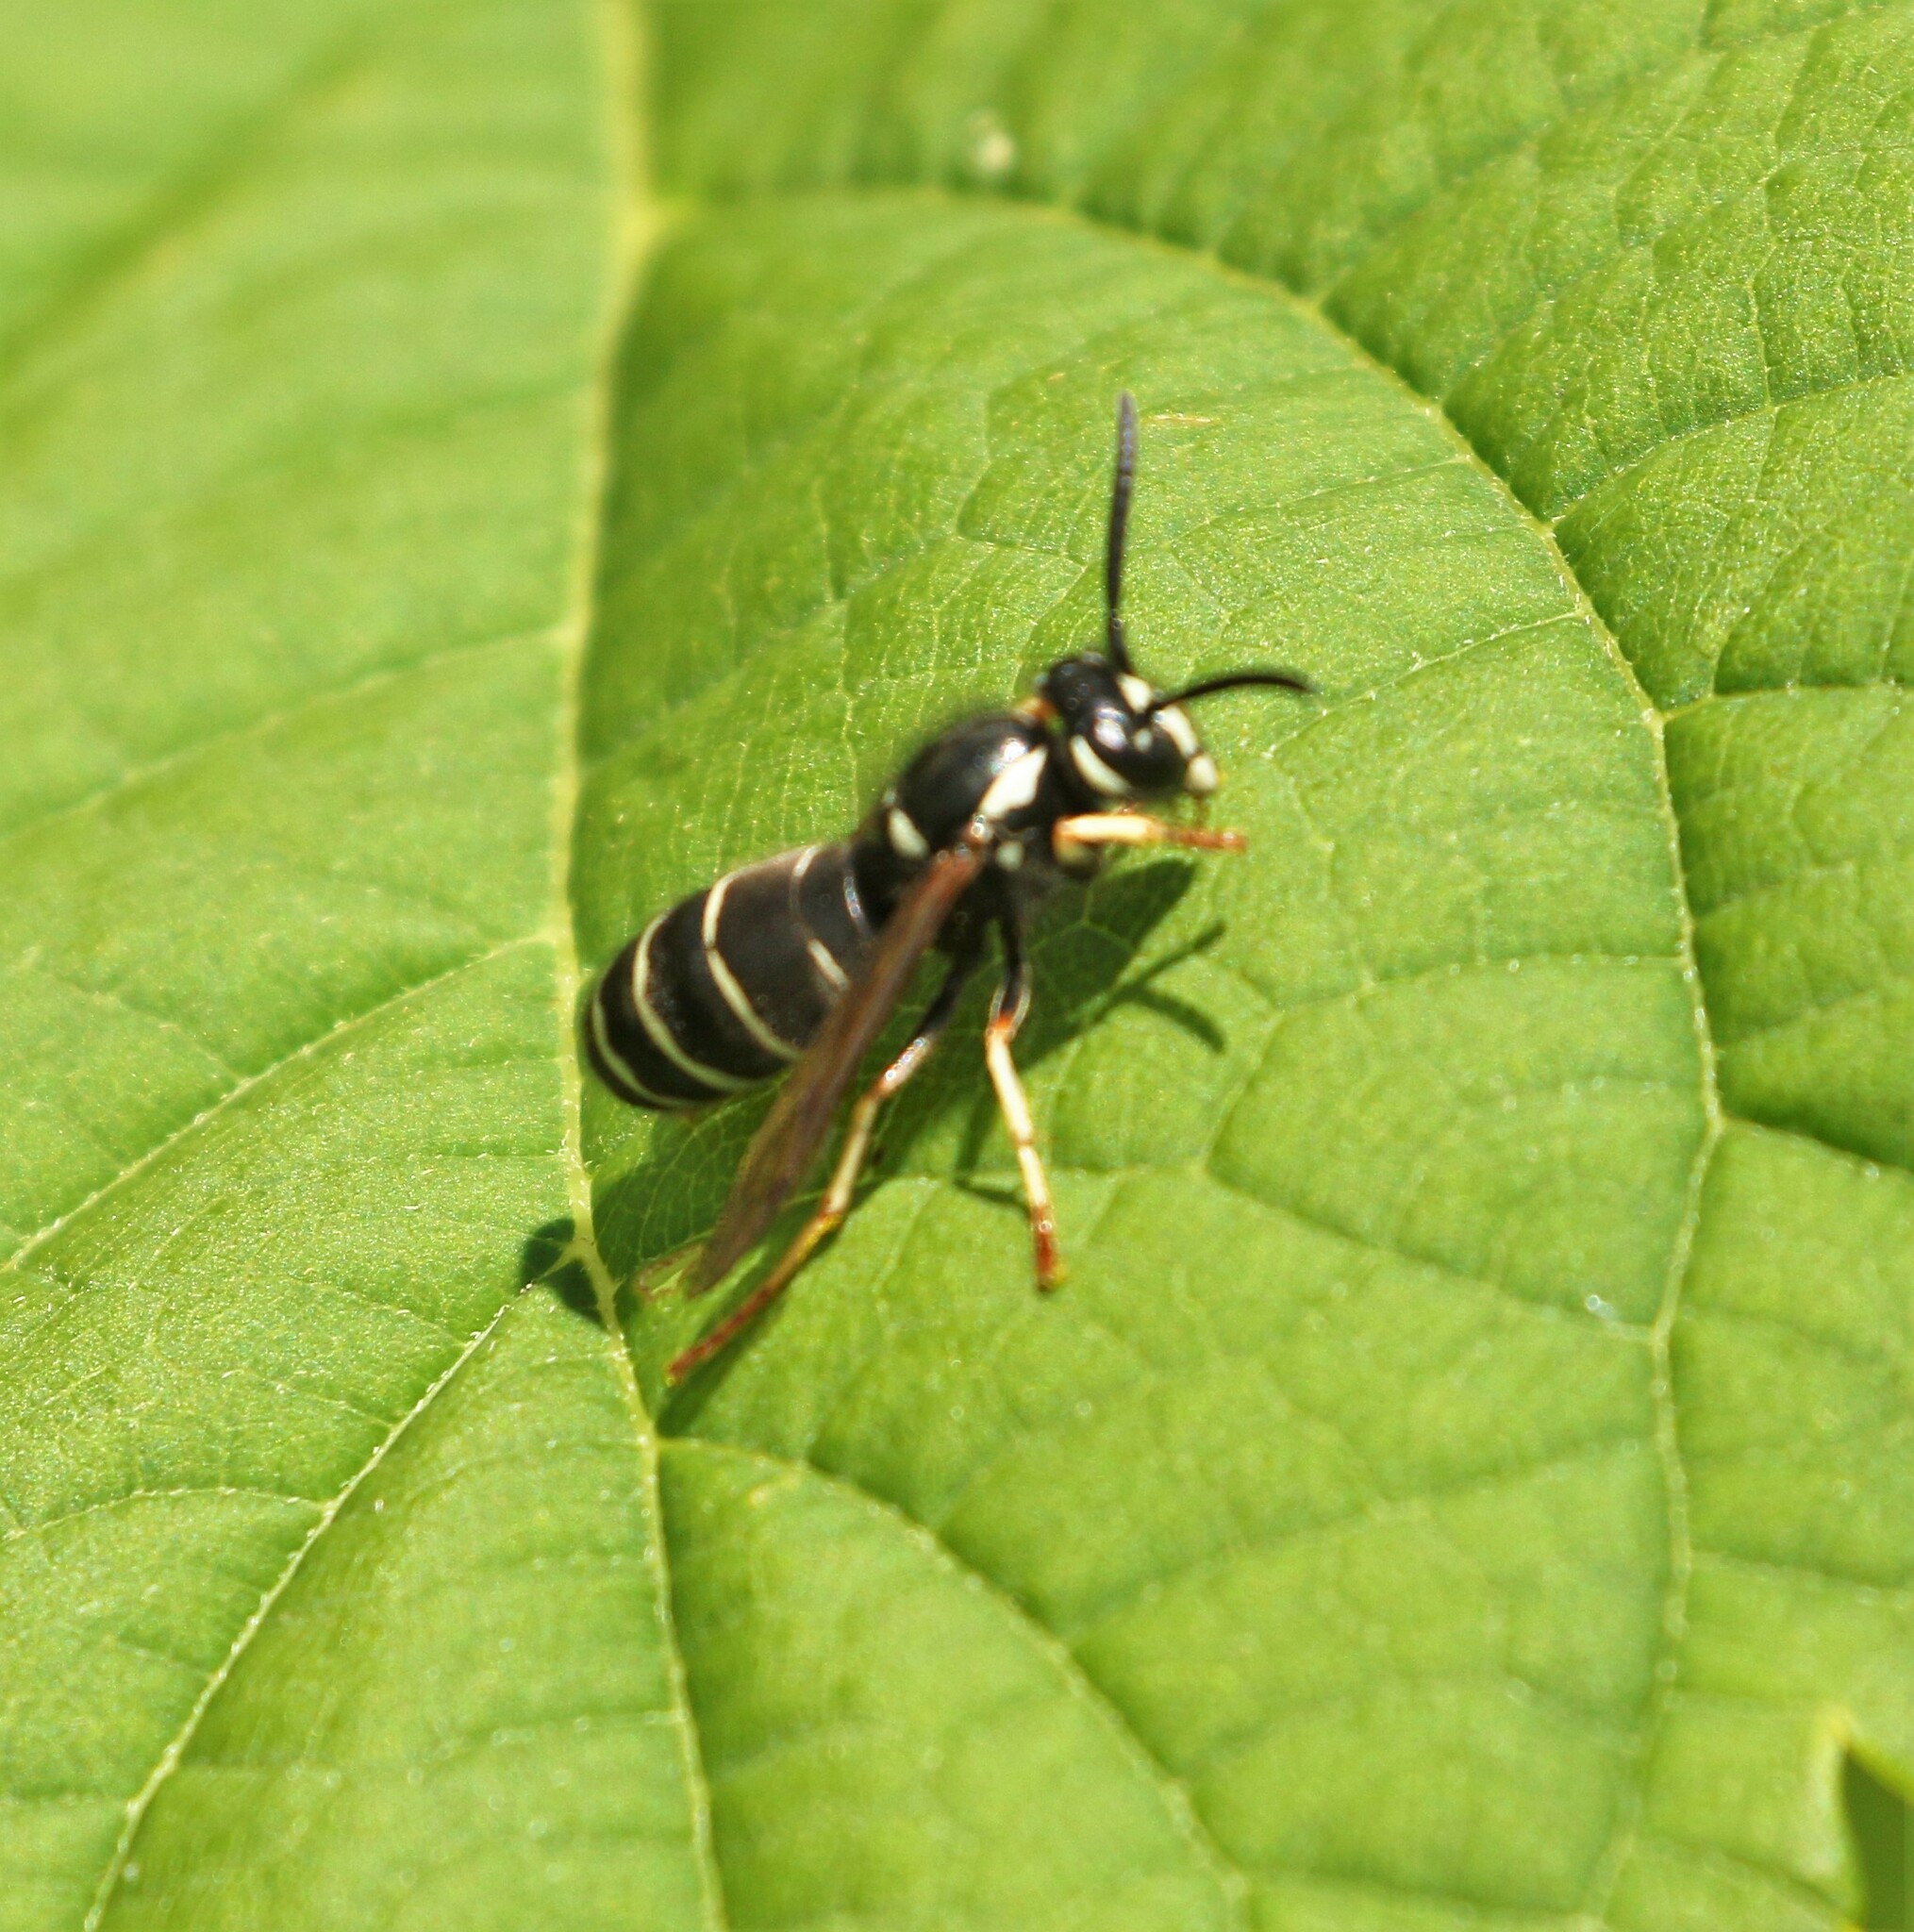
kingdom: Animalia
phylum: Arthropoda
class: Insecta
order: Hymenoptera
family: Vespidae
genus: Vespula
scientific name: Vespula consobrina
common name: Blackjacket
